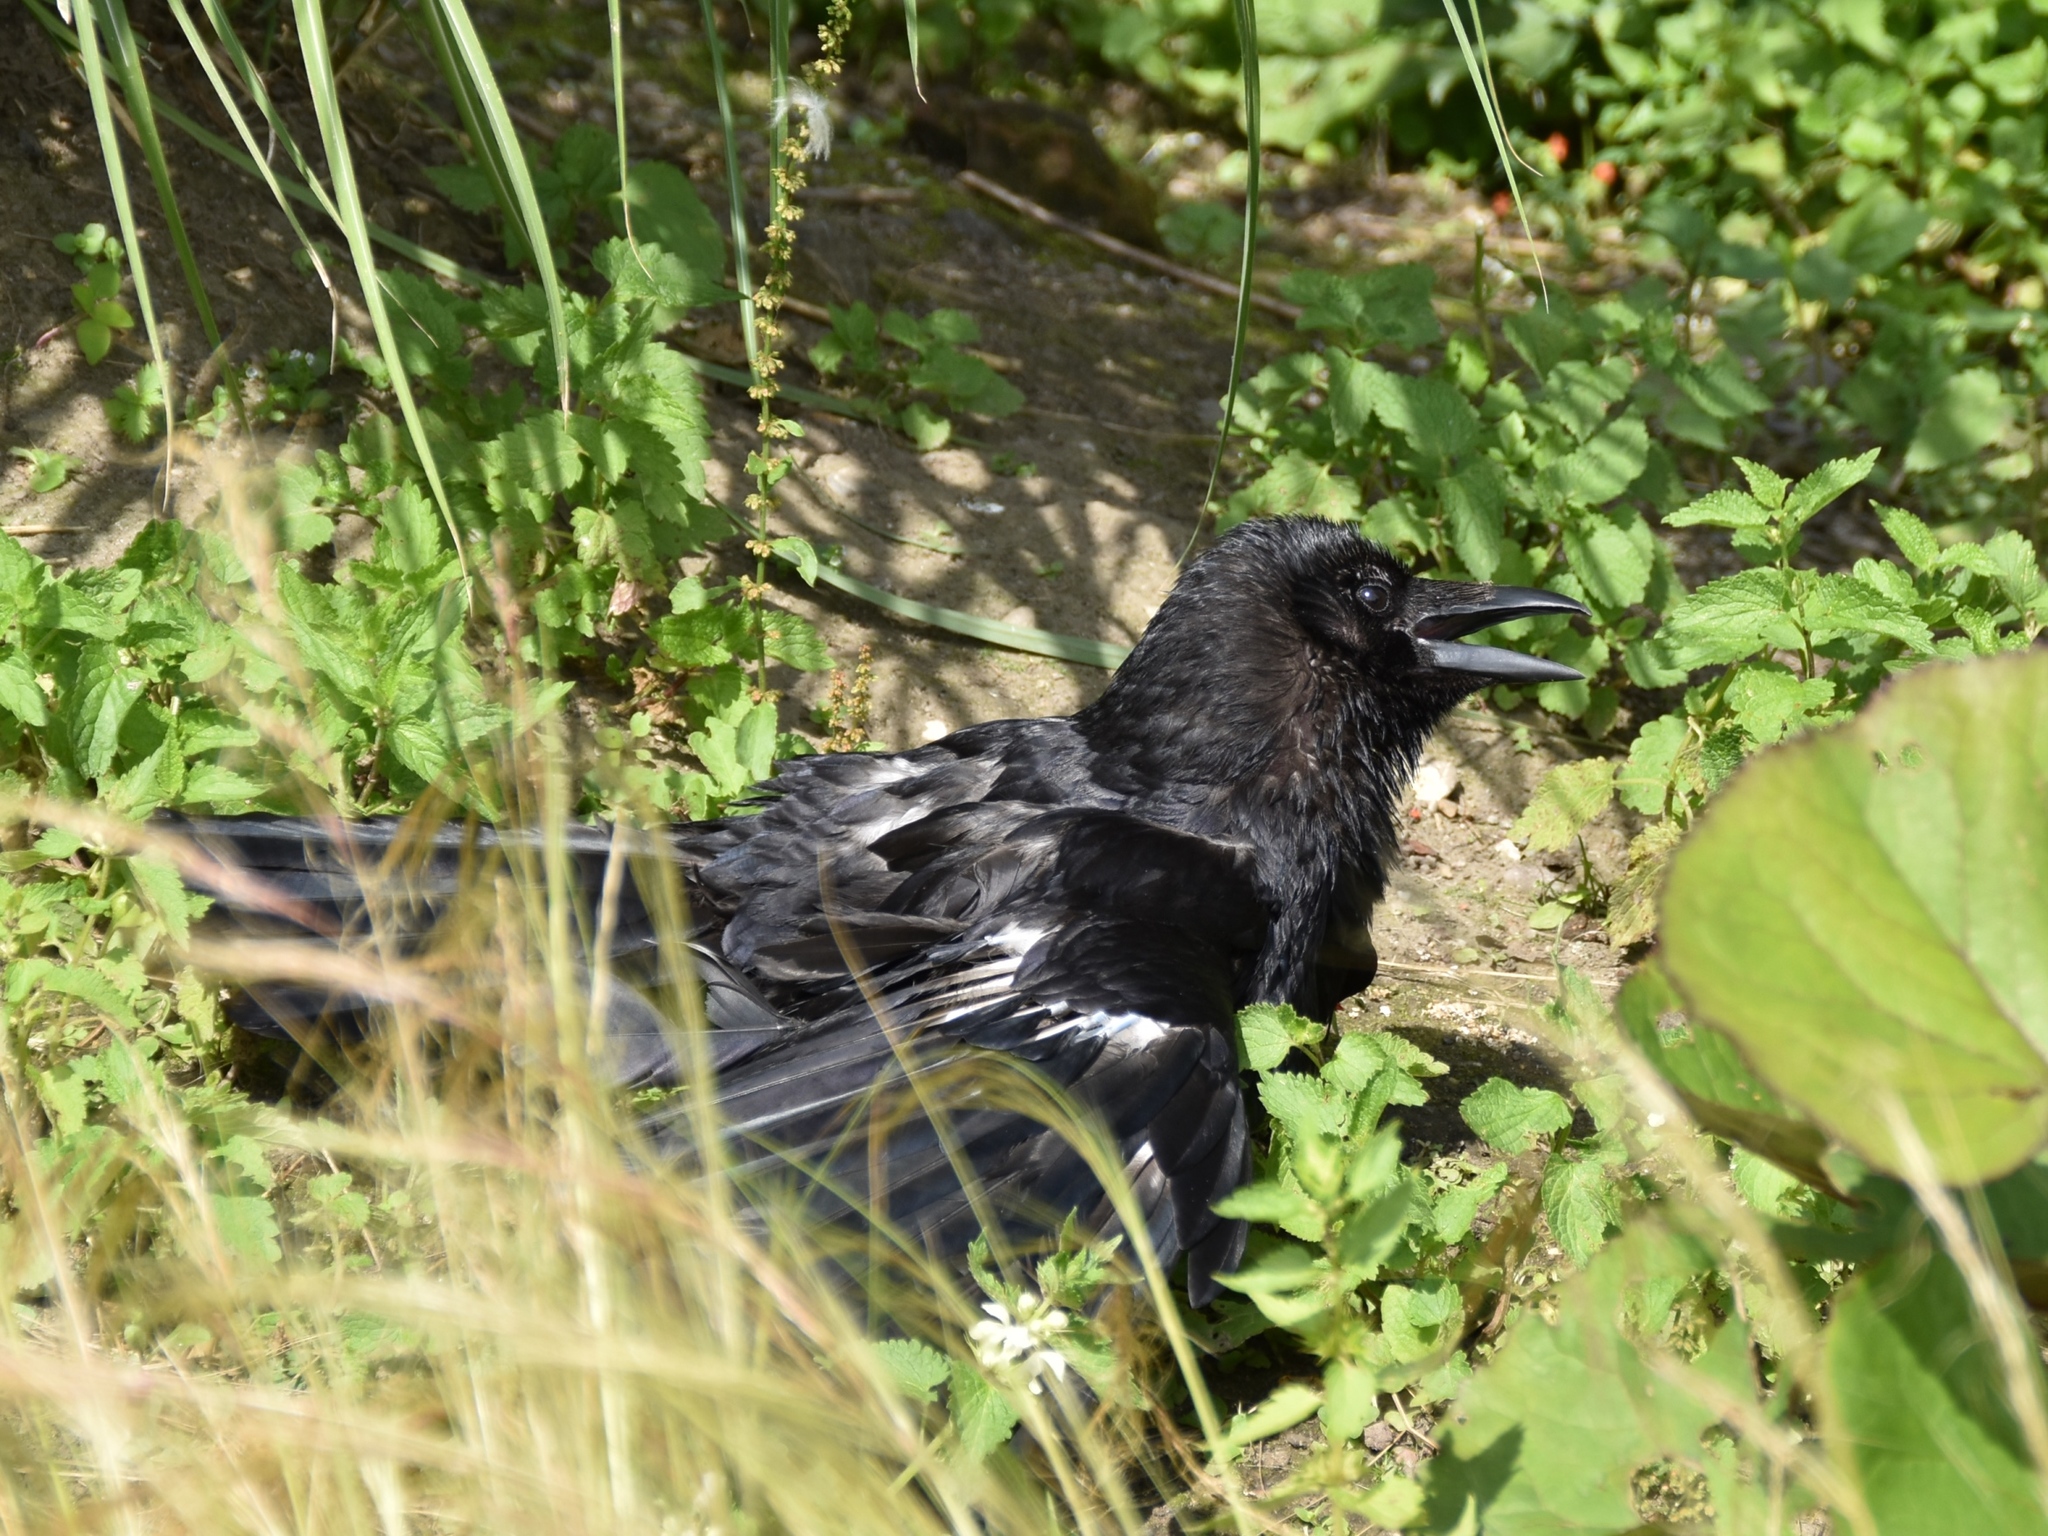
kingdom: Animalia
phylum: Chordata
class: Aves
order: Passeriformes
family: Corvidae
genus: Corvus
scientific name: Corvus corone
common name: Carrion crow
